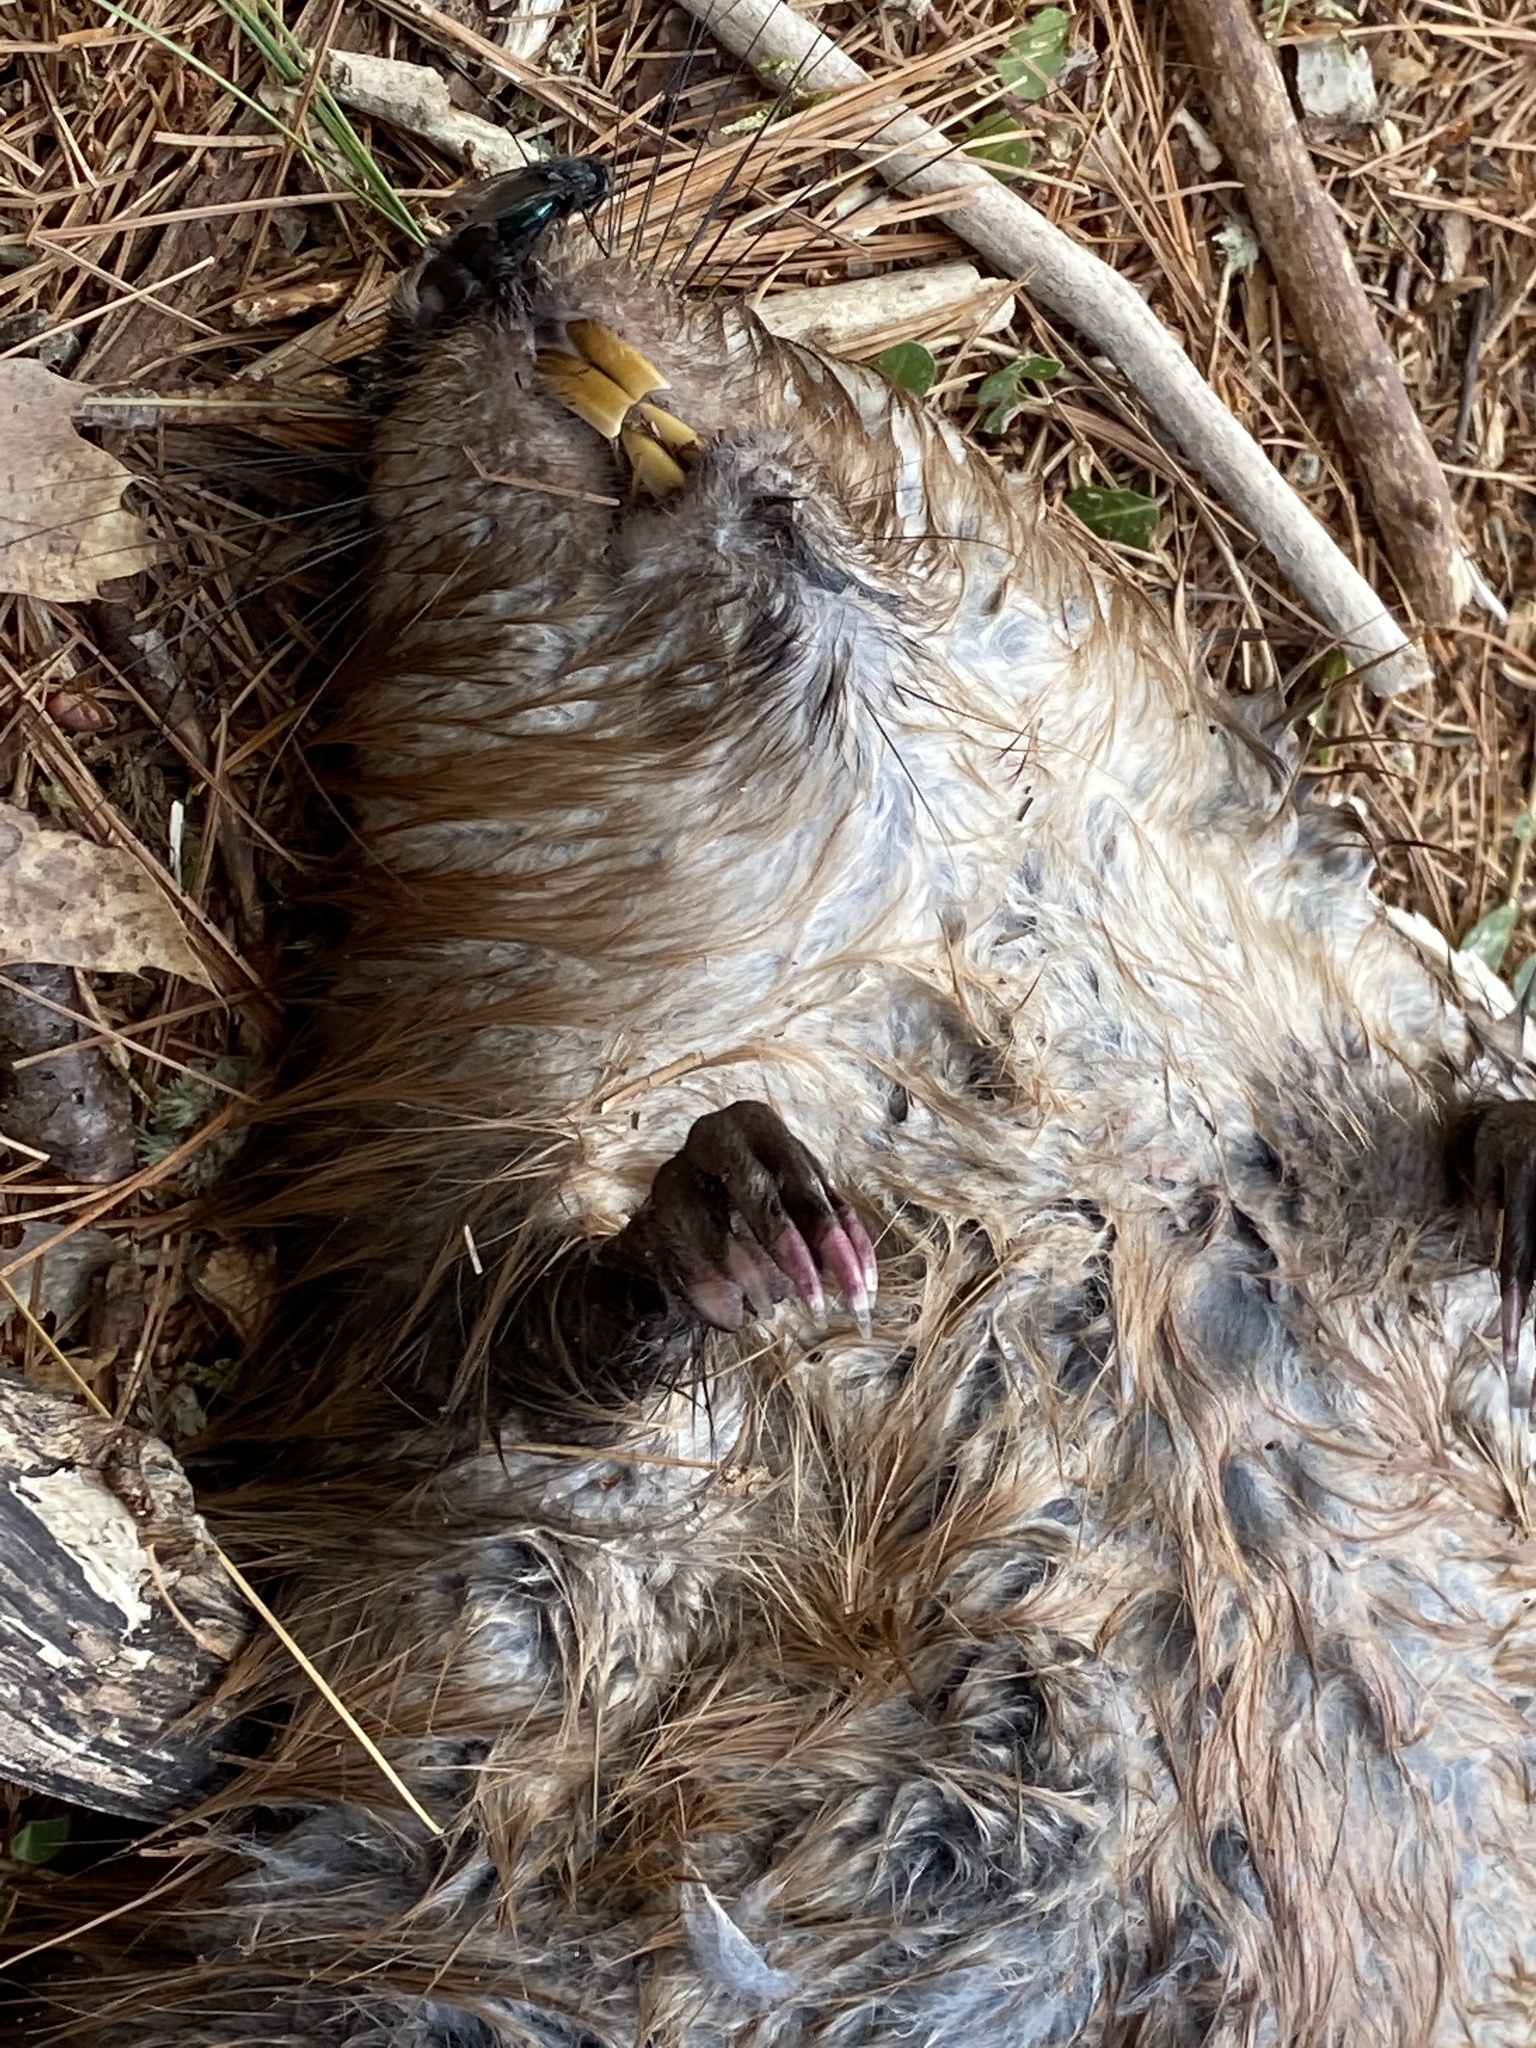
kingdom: Animalia
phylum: Chordata
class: Mammalia
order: Rodentia
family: Cricetidae
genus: Ondatra
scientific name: Ondatra zibethicus
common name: Muskrat
